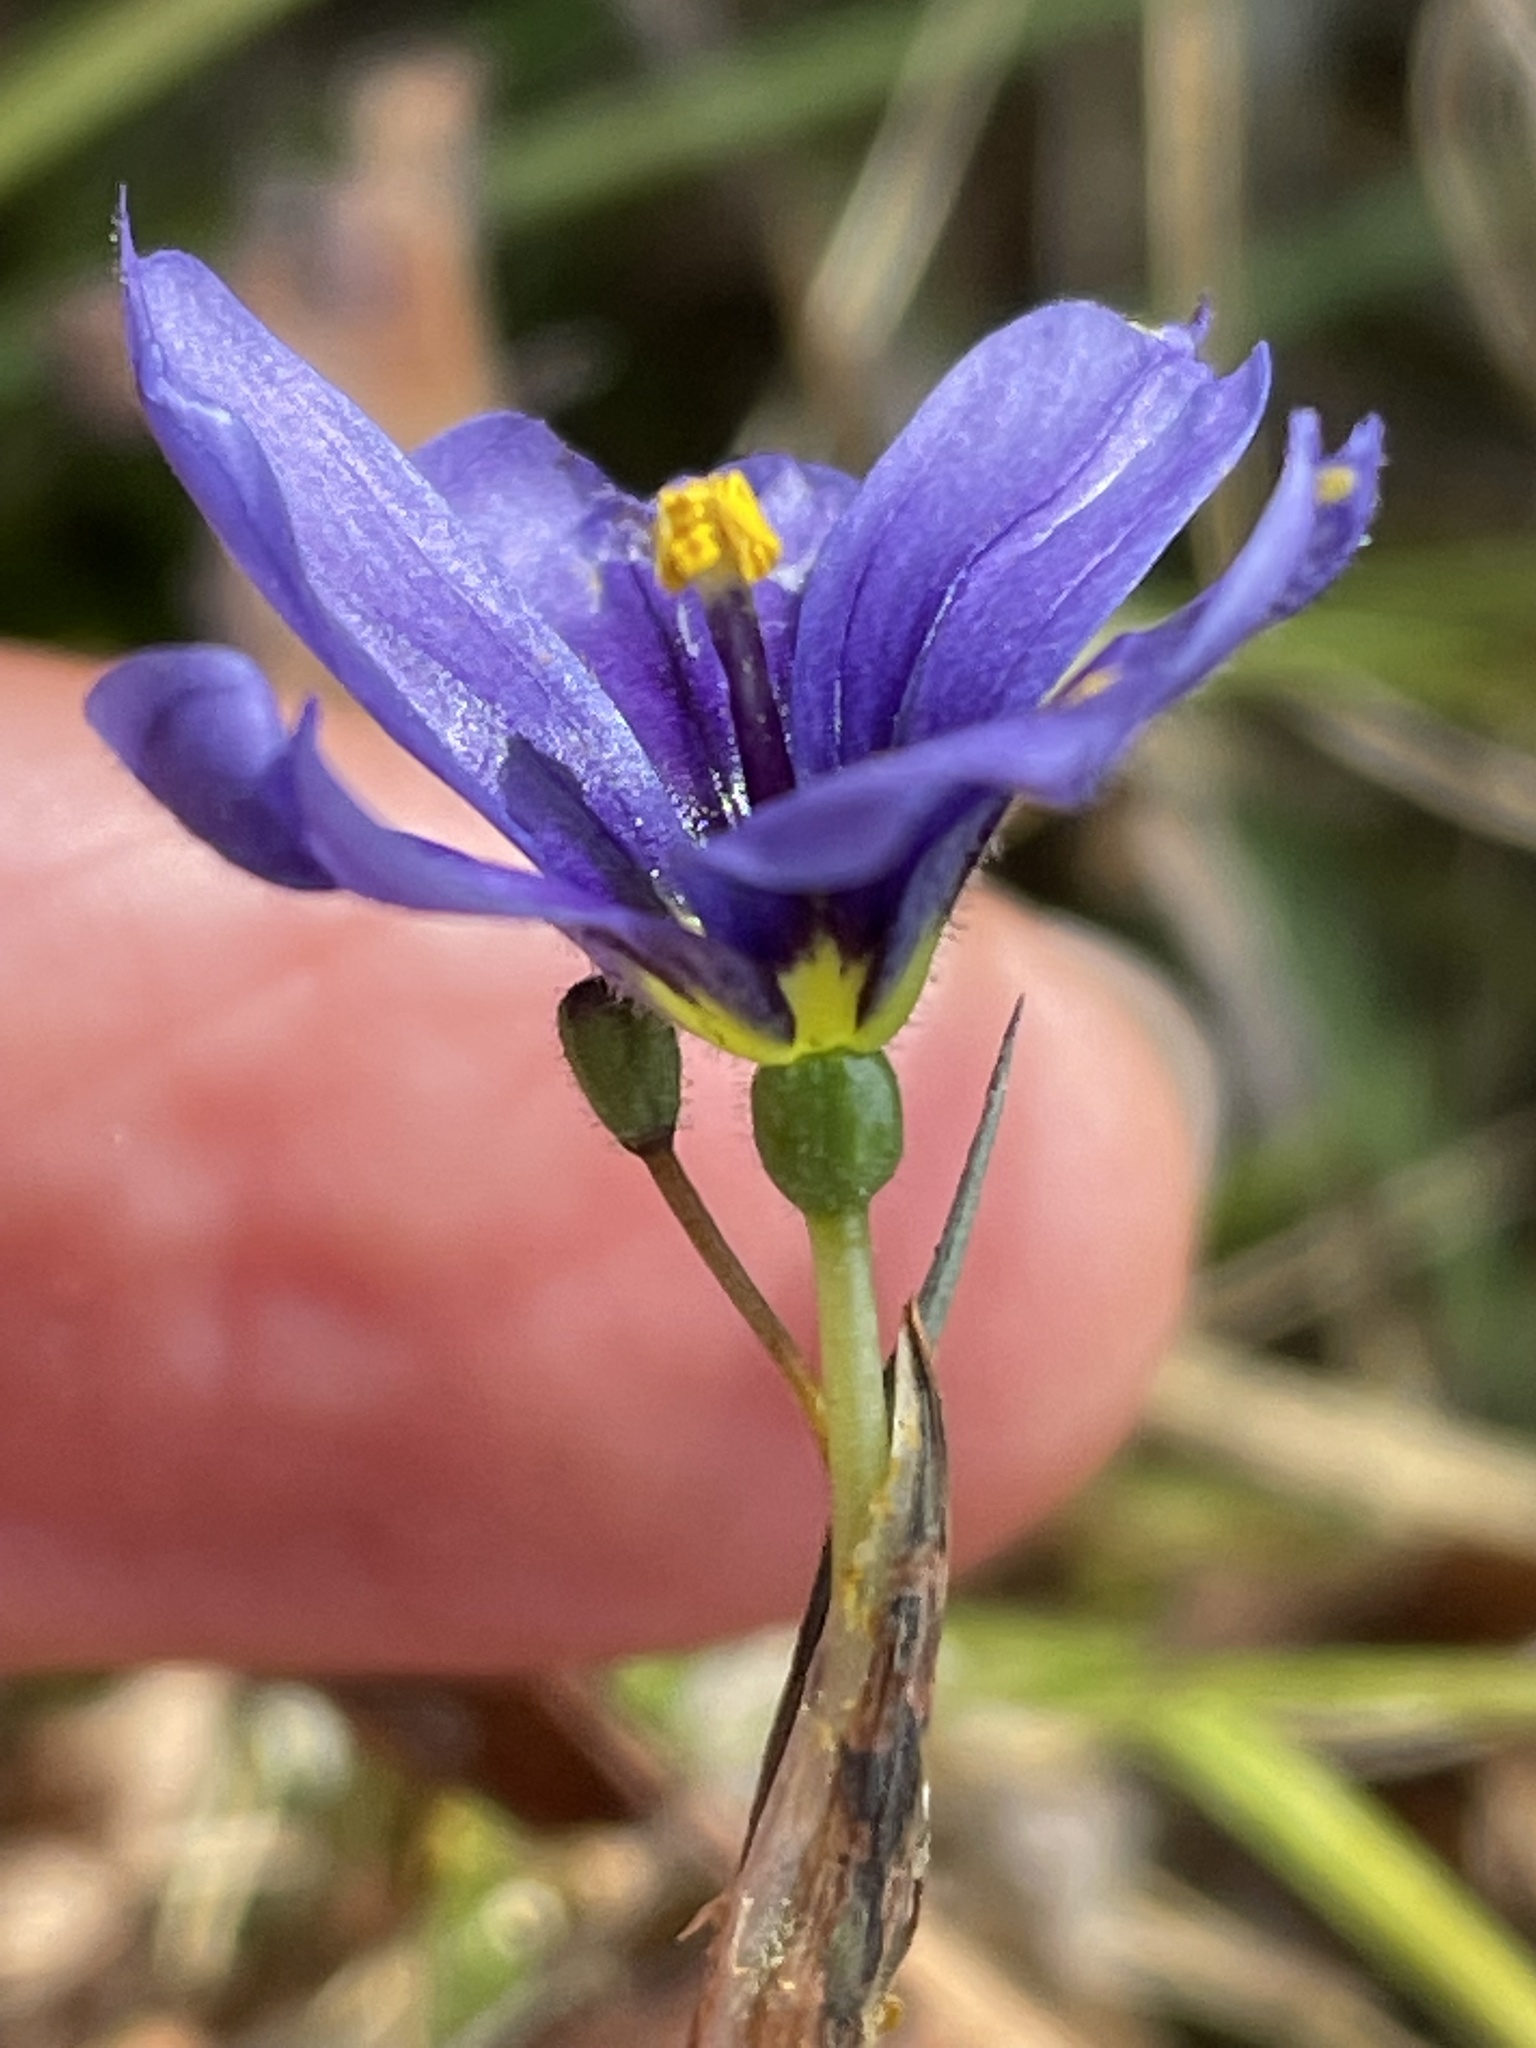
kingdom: Plantae
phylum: Tracheophyta
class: Liliopsida
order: Asparagales
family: Iridaceae
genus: Sisyrinchium
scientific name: Sisyrinchium bellum
